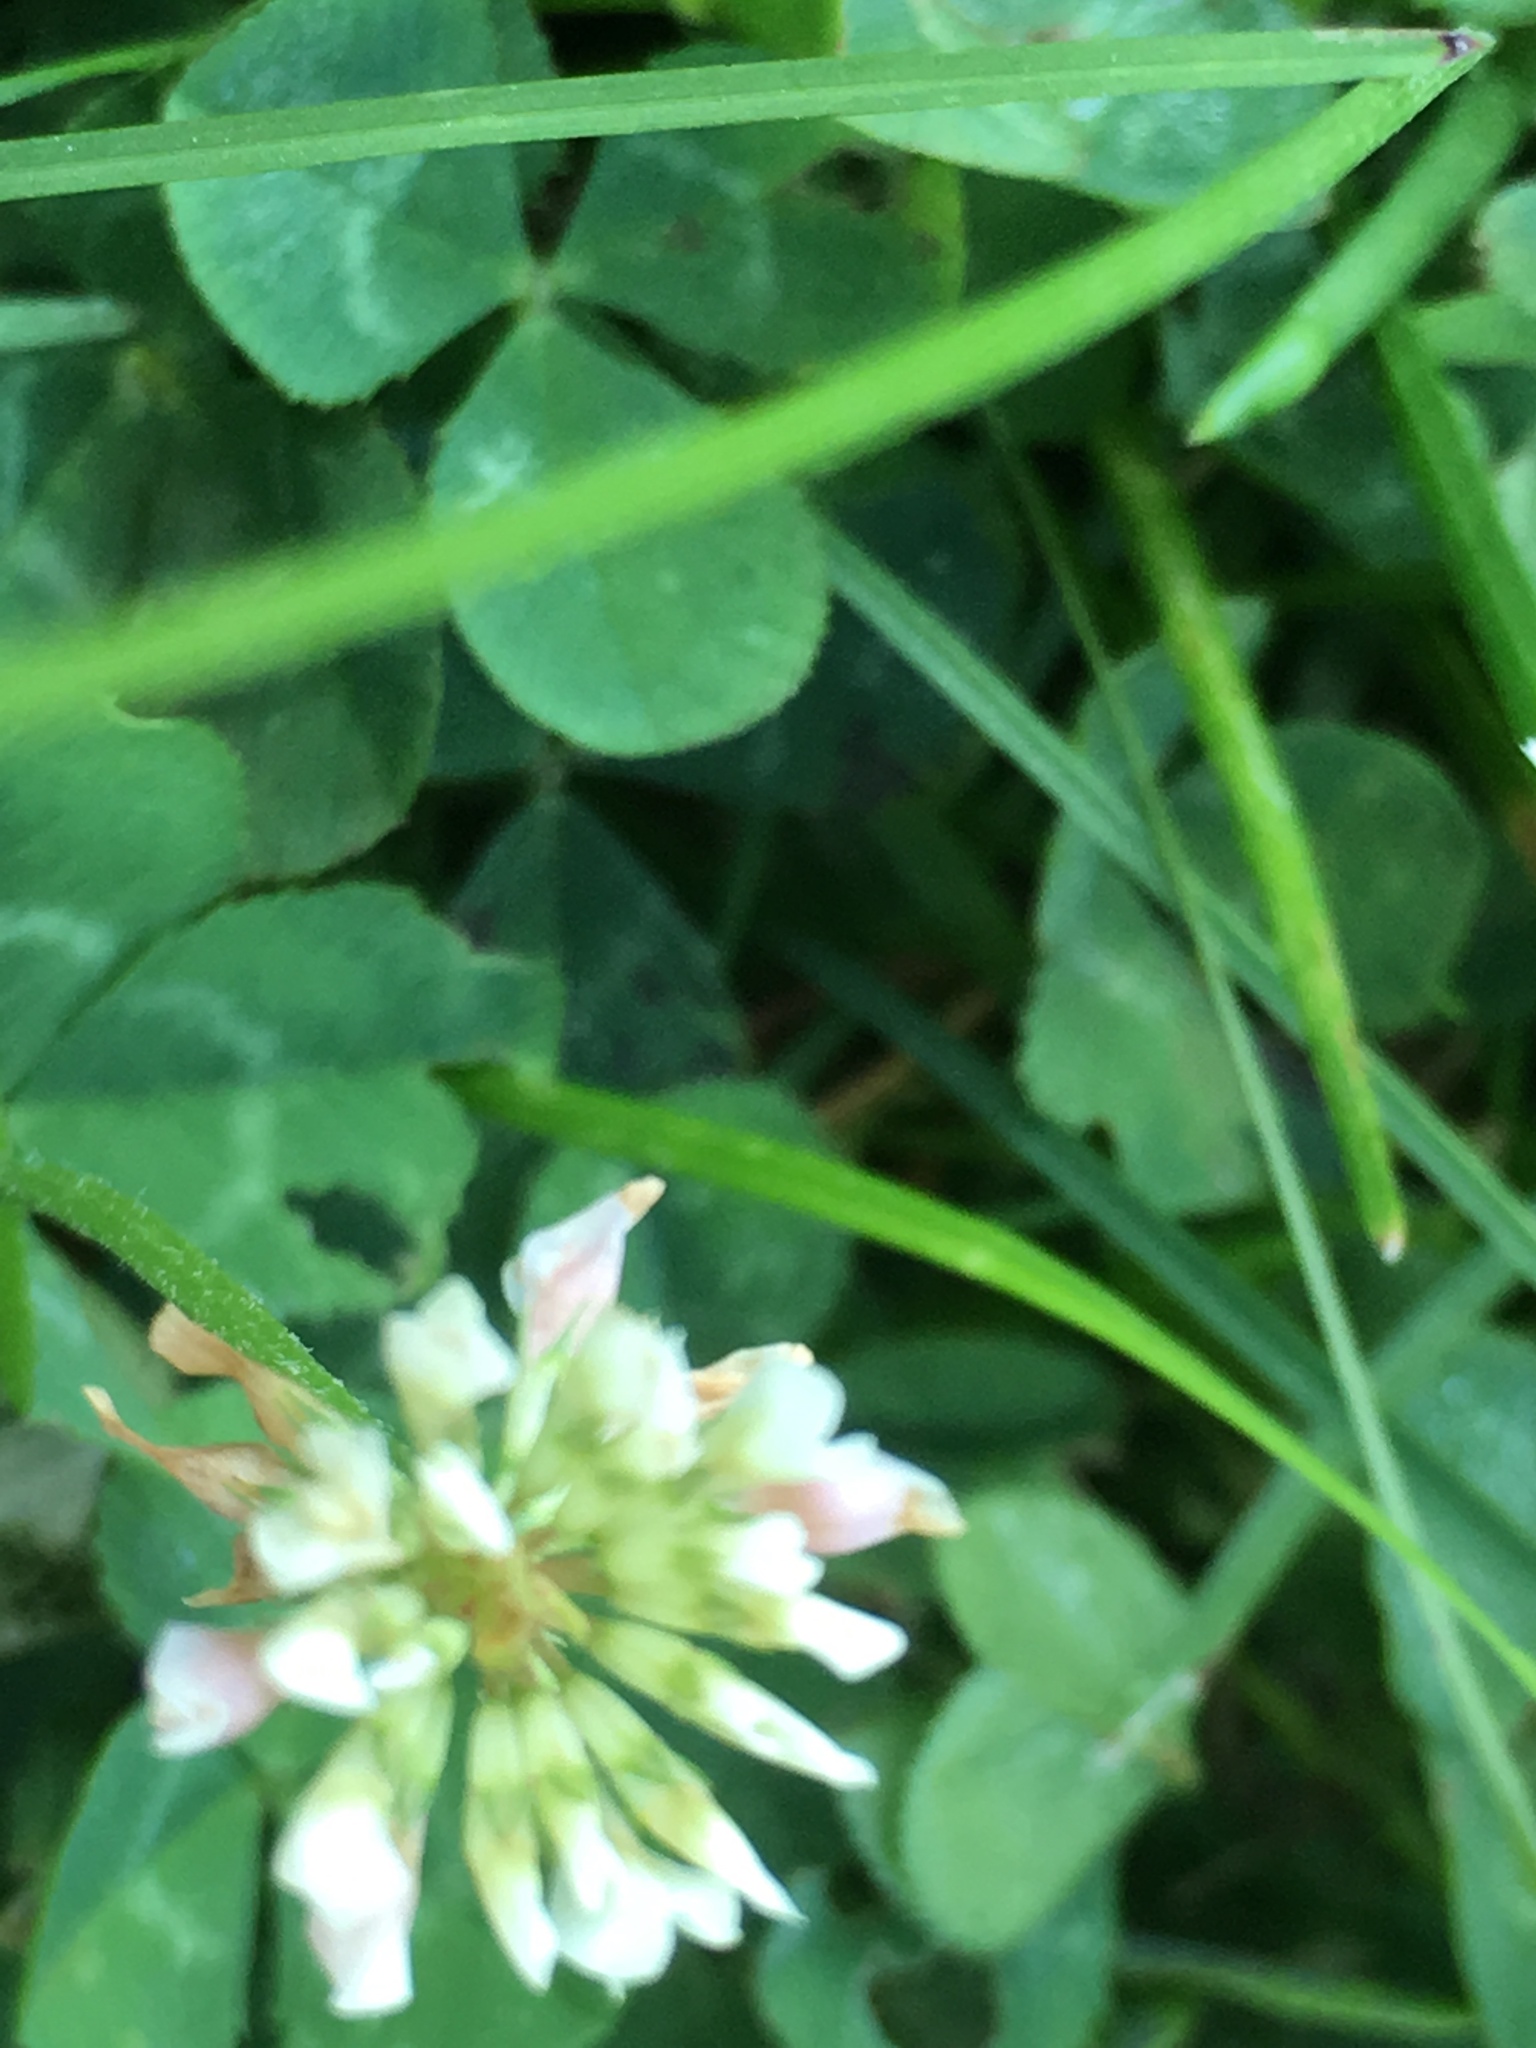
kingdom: Plantae
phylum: Tracheophyta
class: Magnoliopsida
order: Fabales
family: Fabaceae
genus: Trifolium
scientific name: Trifolium repens
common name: White clover
